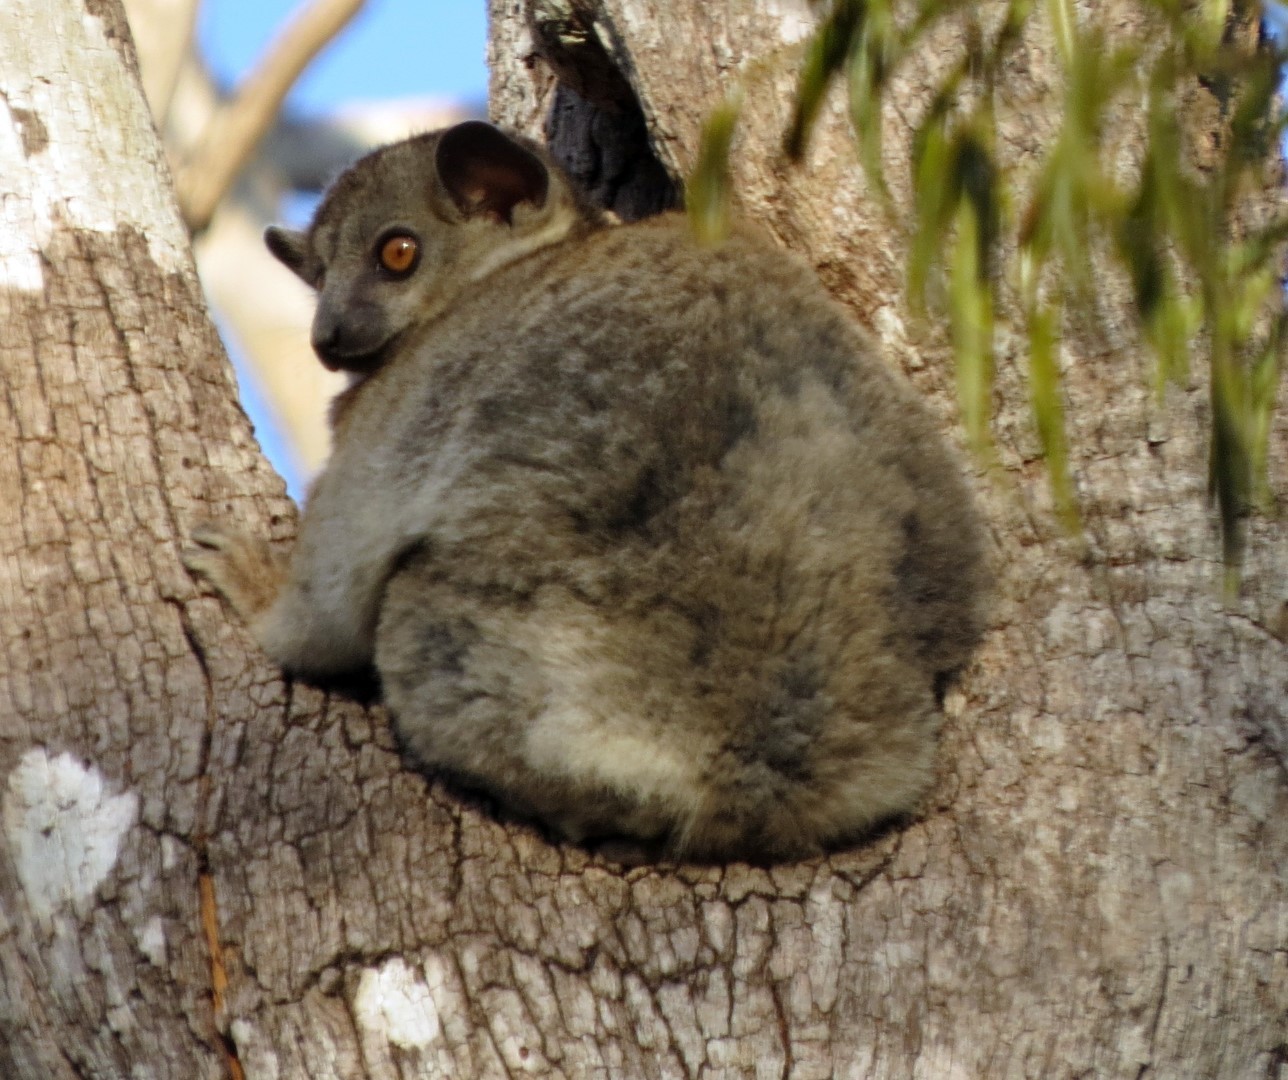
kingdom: Animalia
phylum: Chordata
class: Mammalia
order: Primates
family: Lepilemuridae
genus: Lepilemur
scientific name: Lepilemur ruficaudatus
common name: Red-tailed sportive lemur
